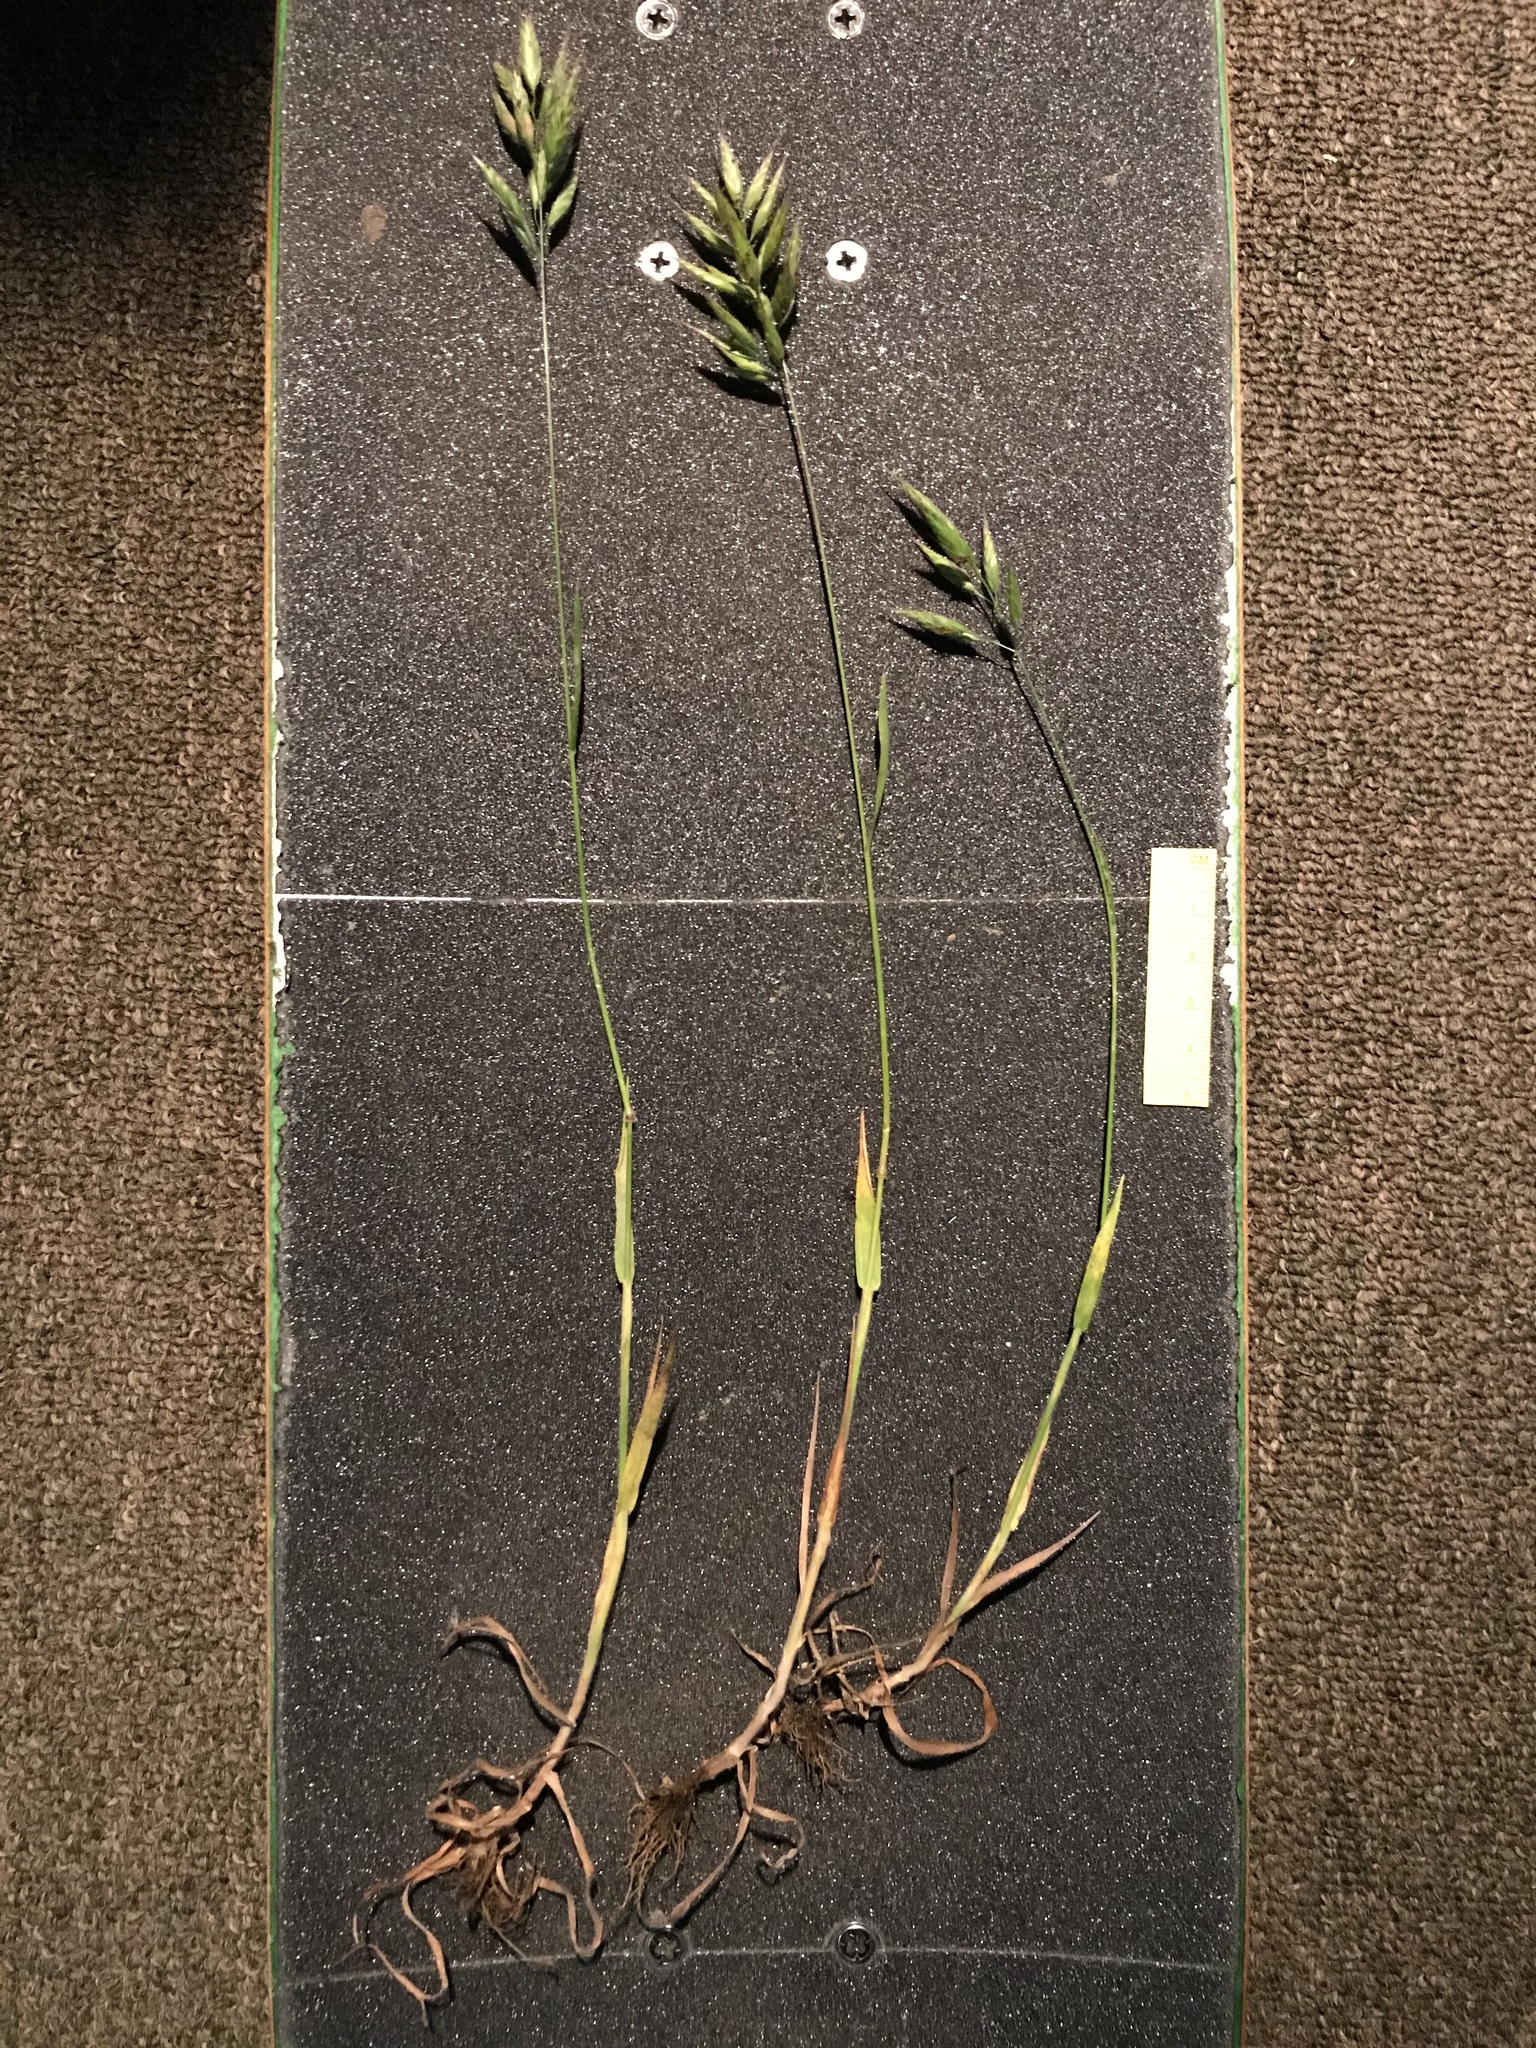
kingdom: Plantae
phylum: Tracheophyta
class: Liliopsida
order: Poales
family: Poaceae
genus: Bromus
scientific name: Bromus hordeaceus
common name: Soft brome
